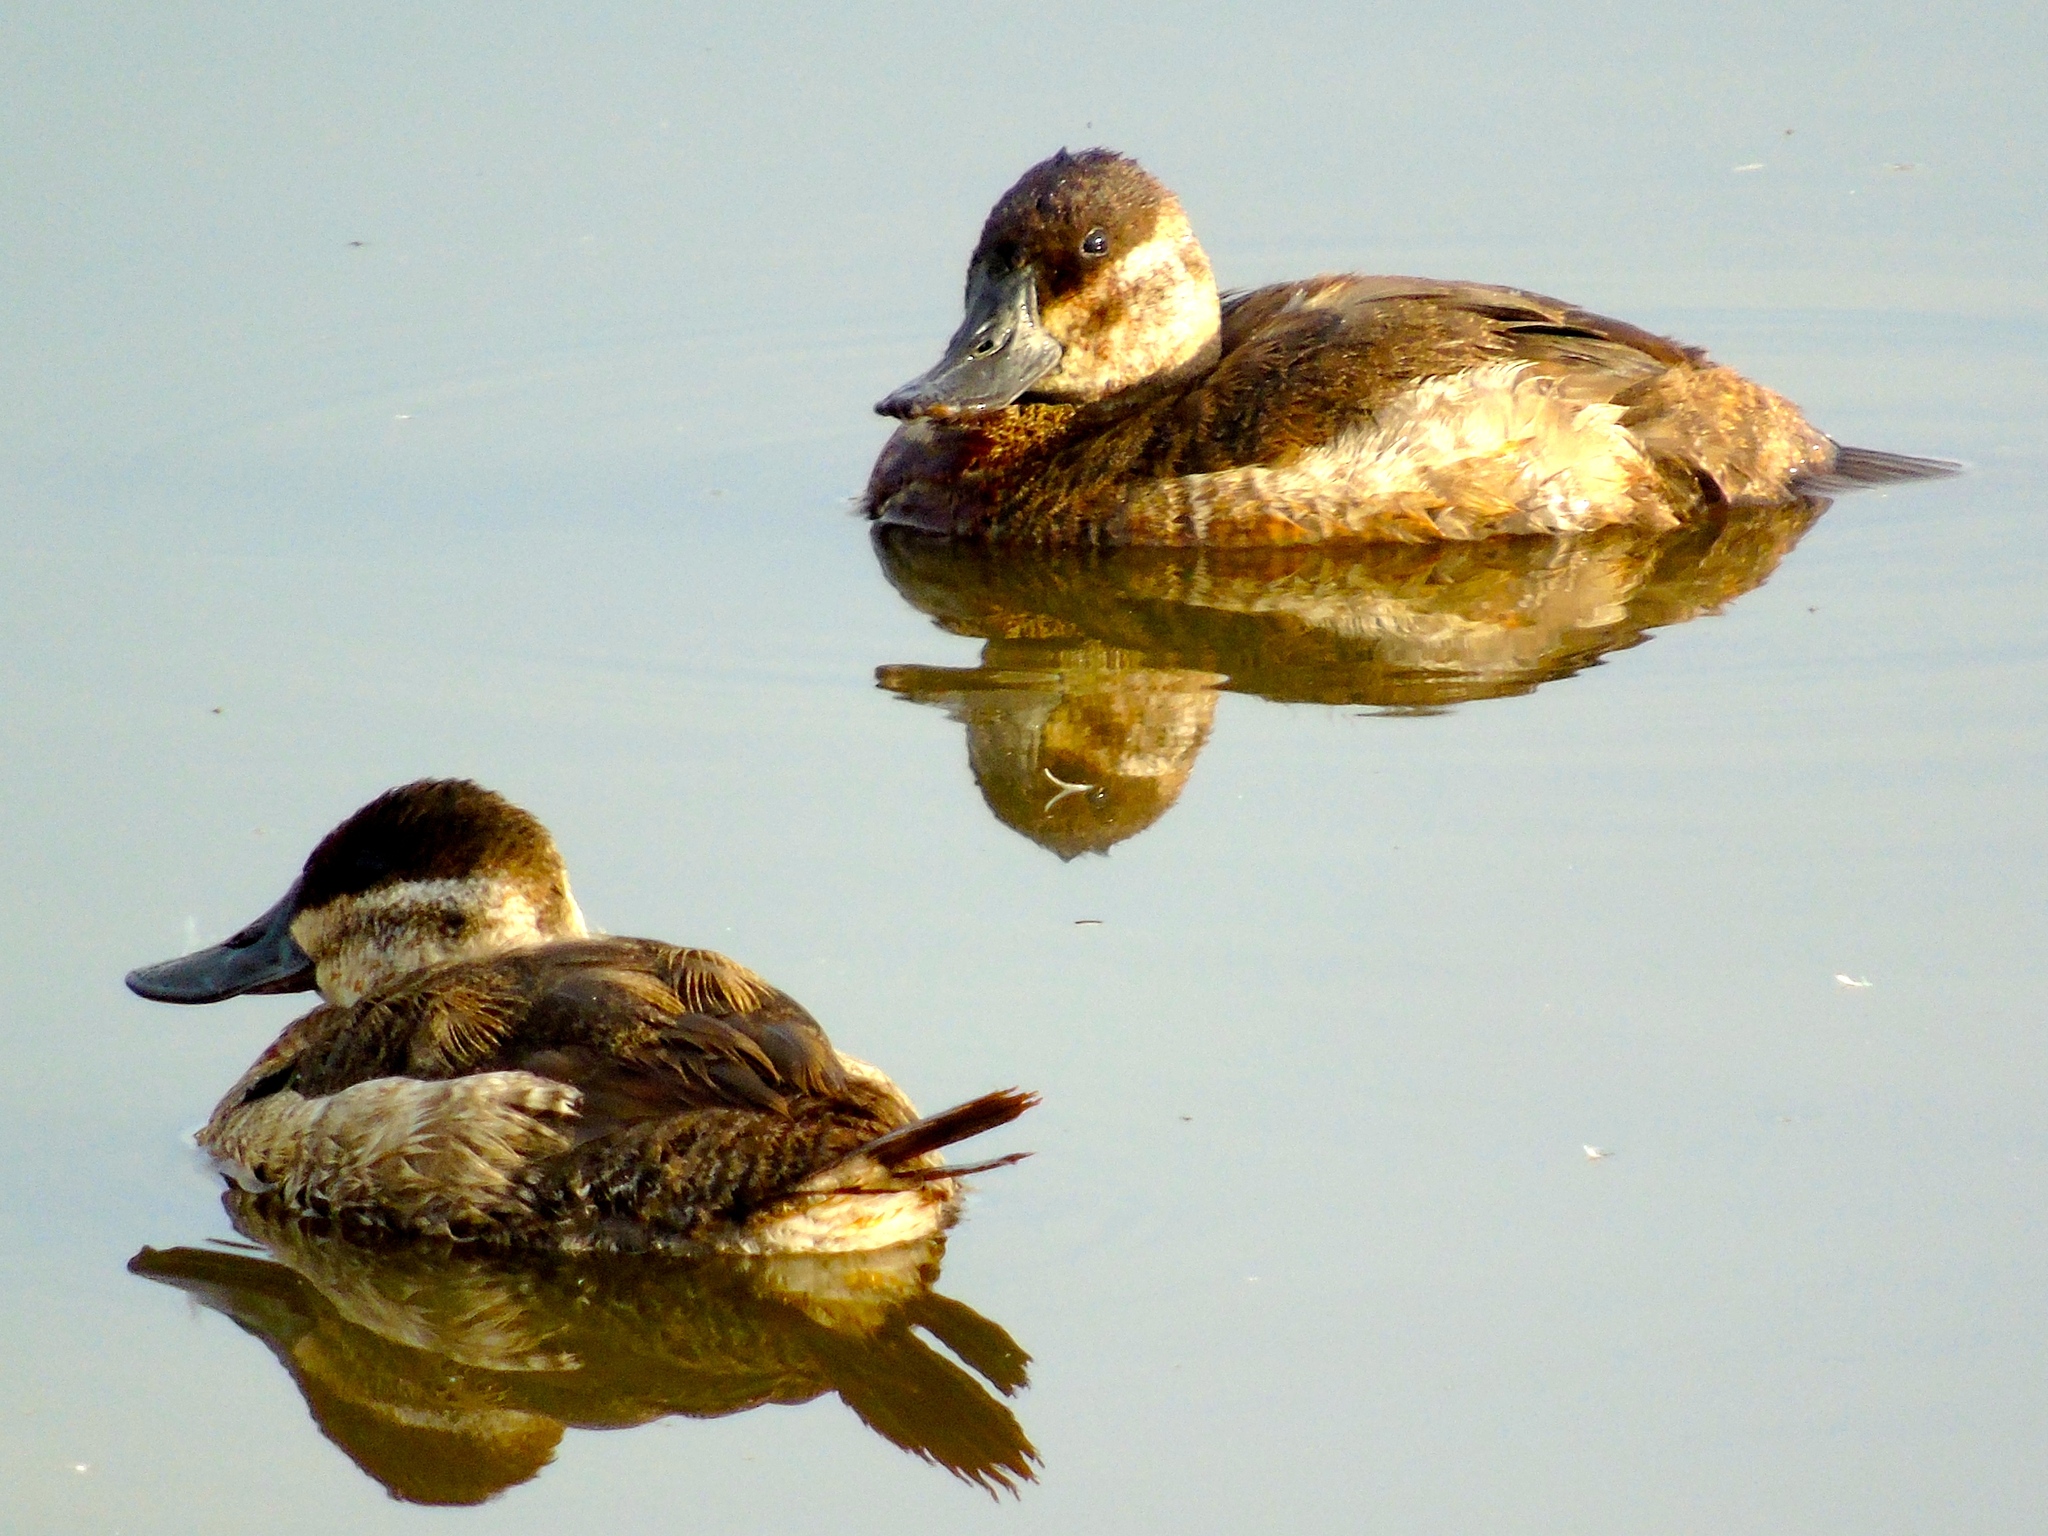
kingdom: Animalia
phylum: Chordata
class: Aves
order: Anseriformes
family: Anatidae
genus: Oxyura
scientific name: Oxyura jamaicensis
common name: Ruddy duck
